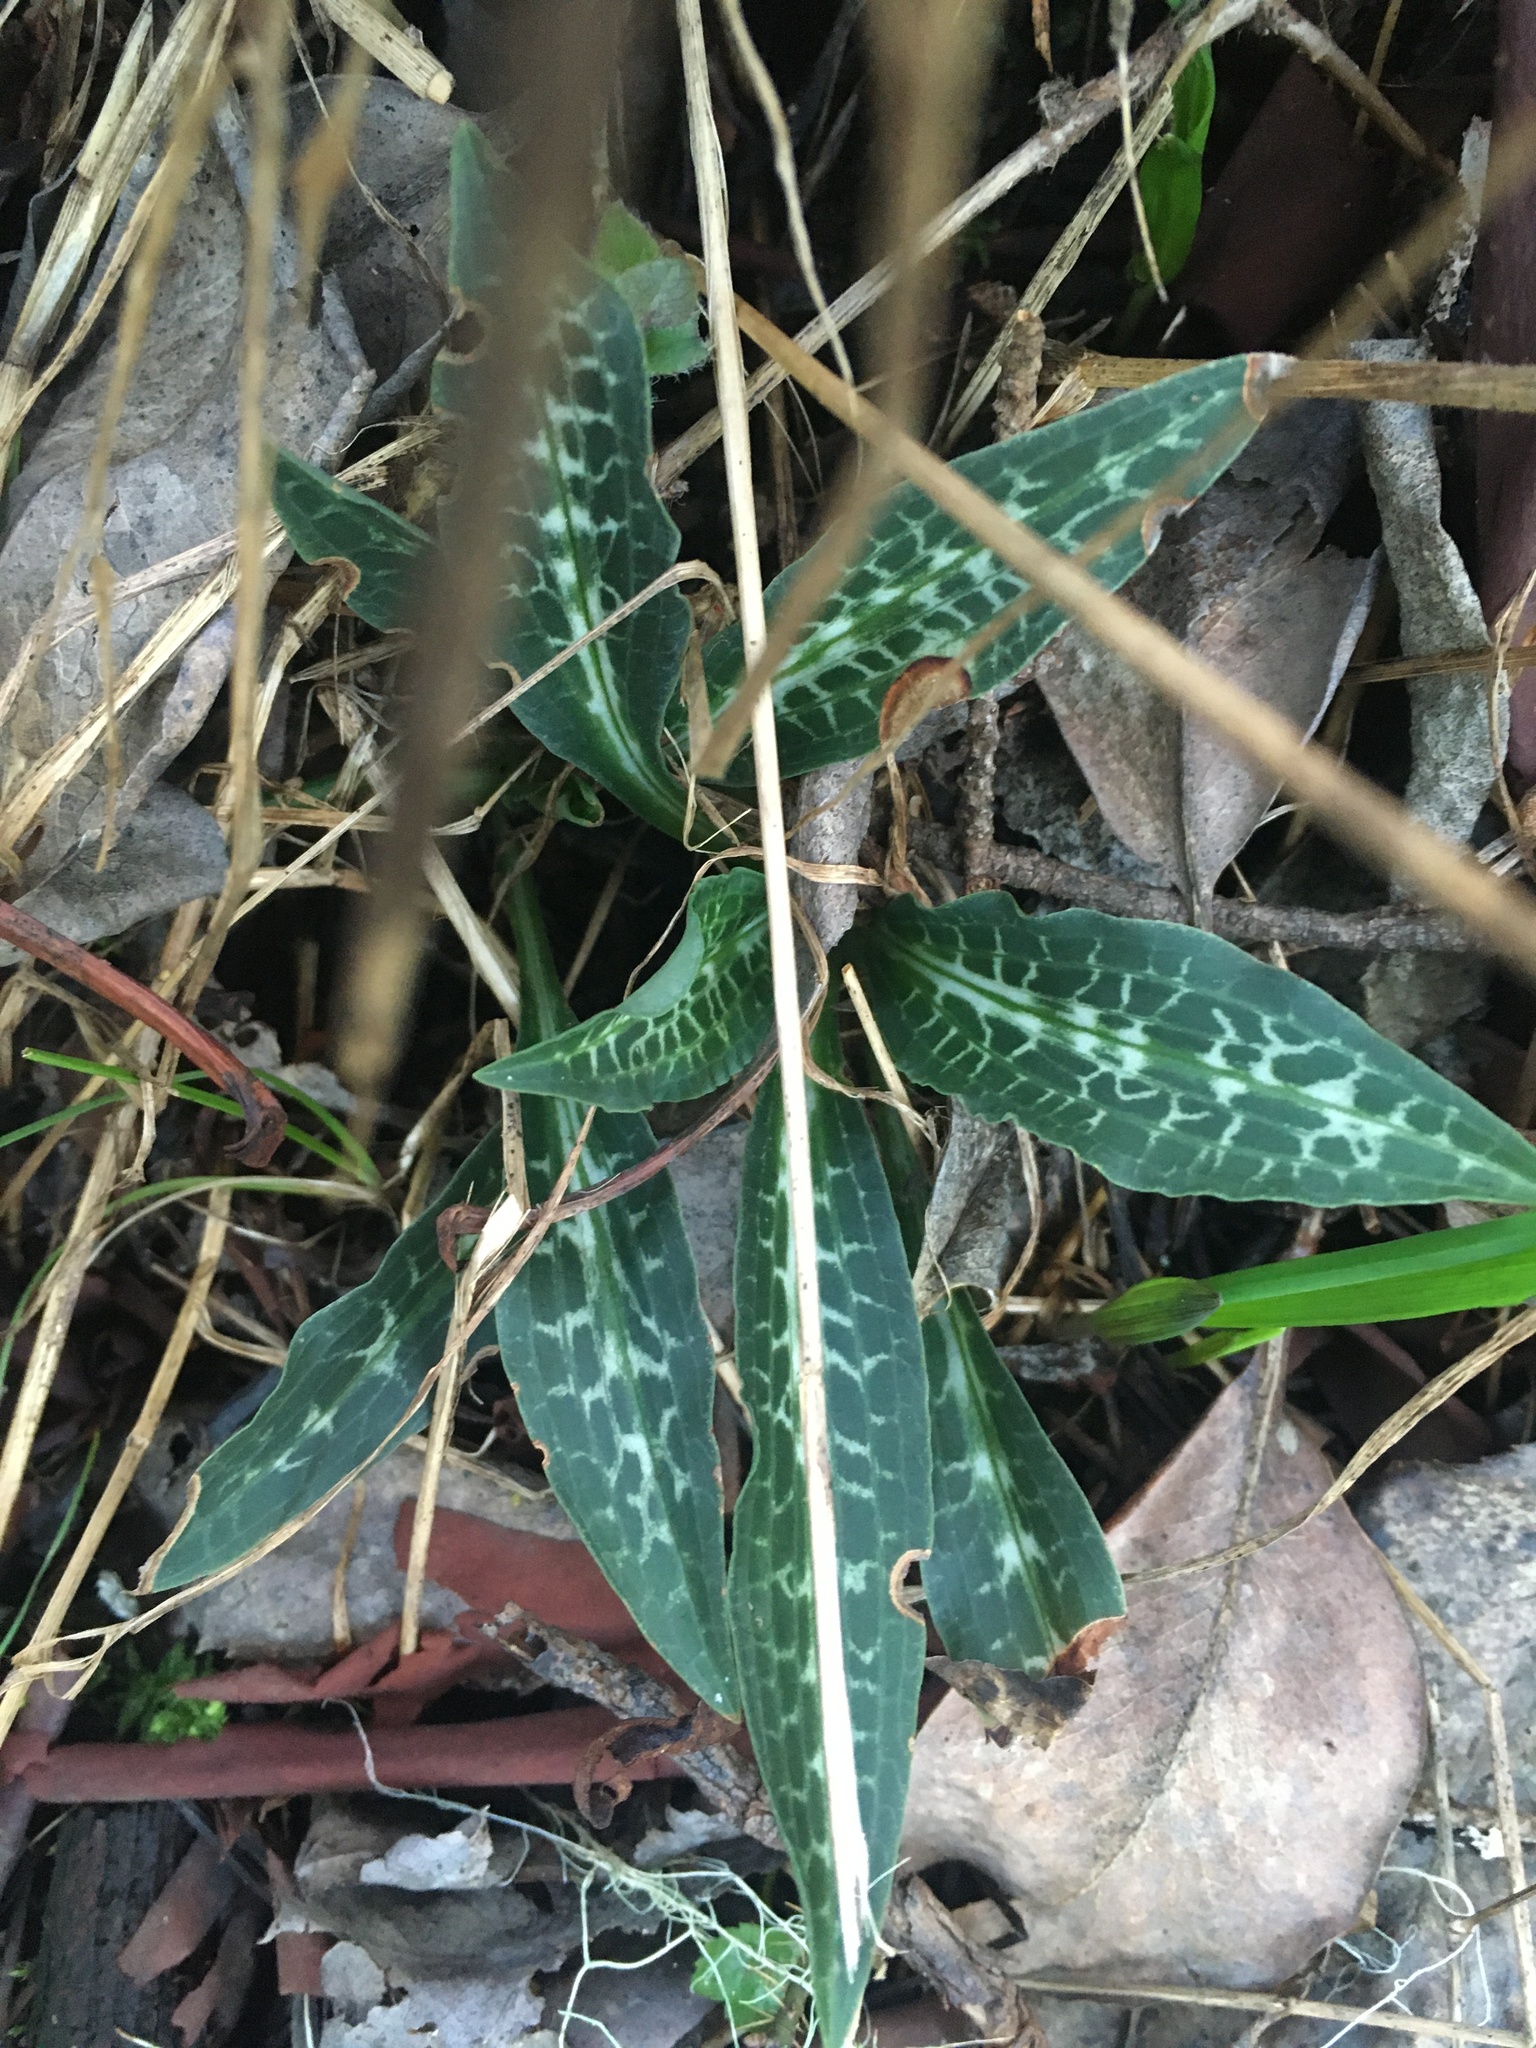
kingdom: Plantae
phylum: Tracheophyta
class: Liliopsida
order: Asparagales
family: Orchidaceae
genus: Goodyera
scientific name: Goodyera oblongifolia
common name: Giant rattlesnake-plantain
